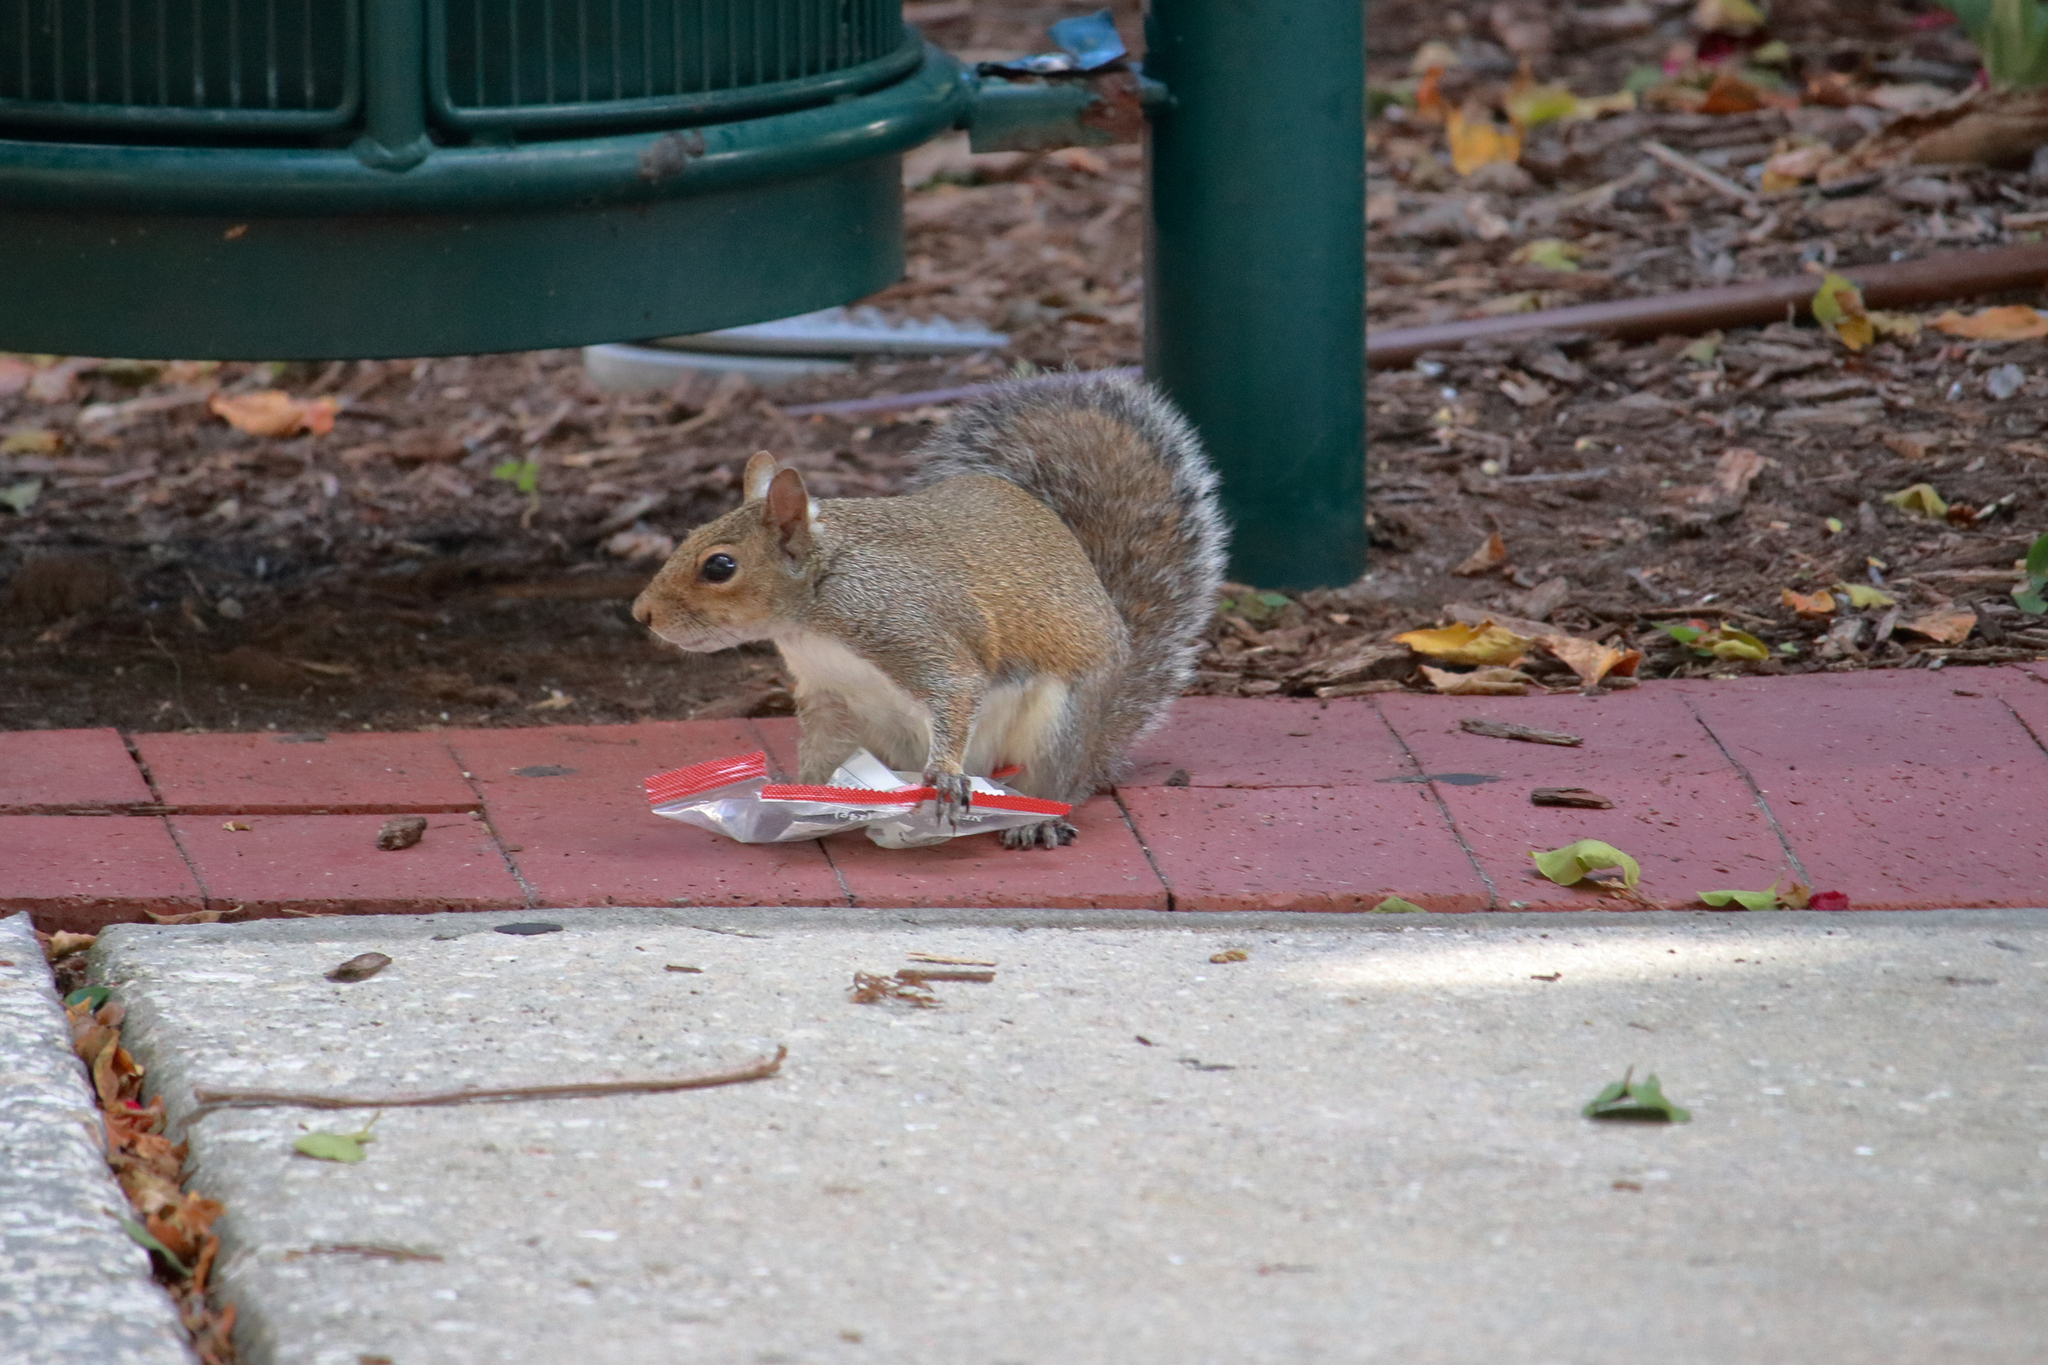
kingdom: Animalia
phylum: Chordata
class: Mammalia
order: Rodentia
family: Sciuridae
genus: Sciurus
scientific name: Sciurus carolinensis
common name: Eastern gray squirrel
